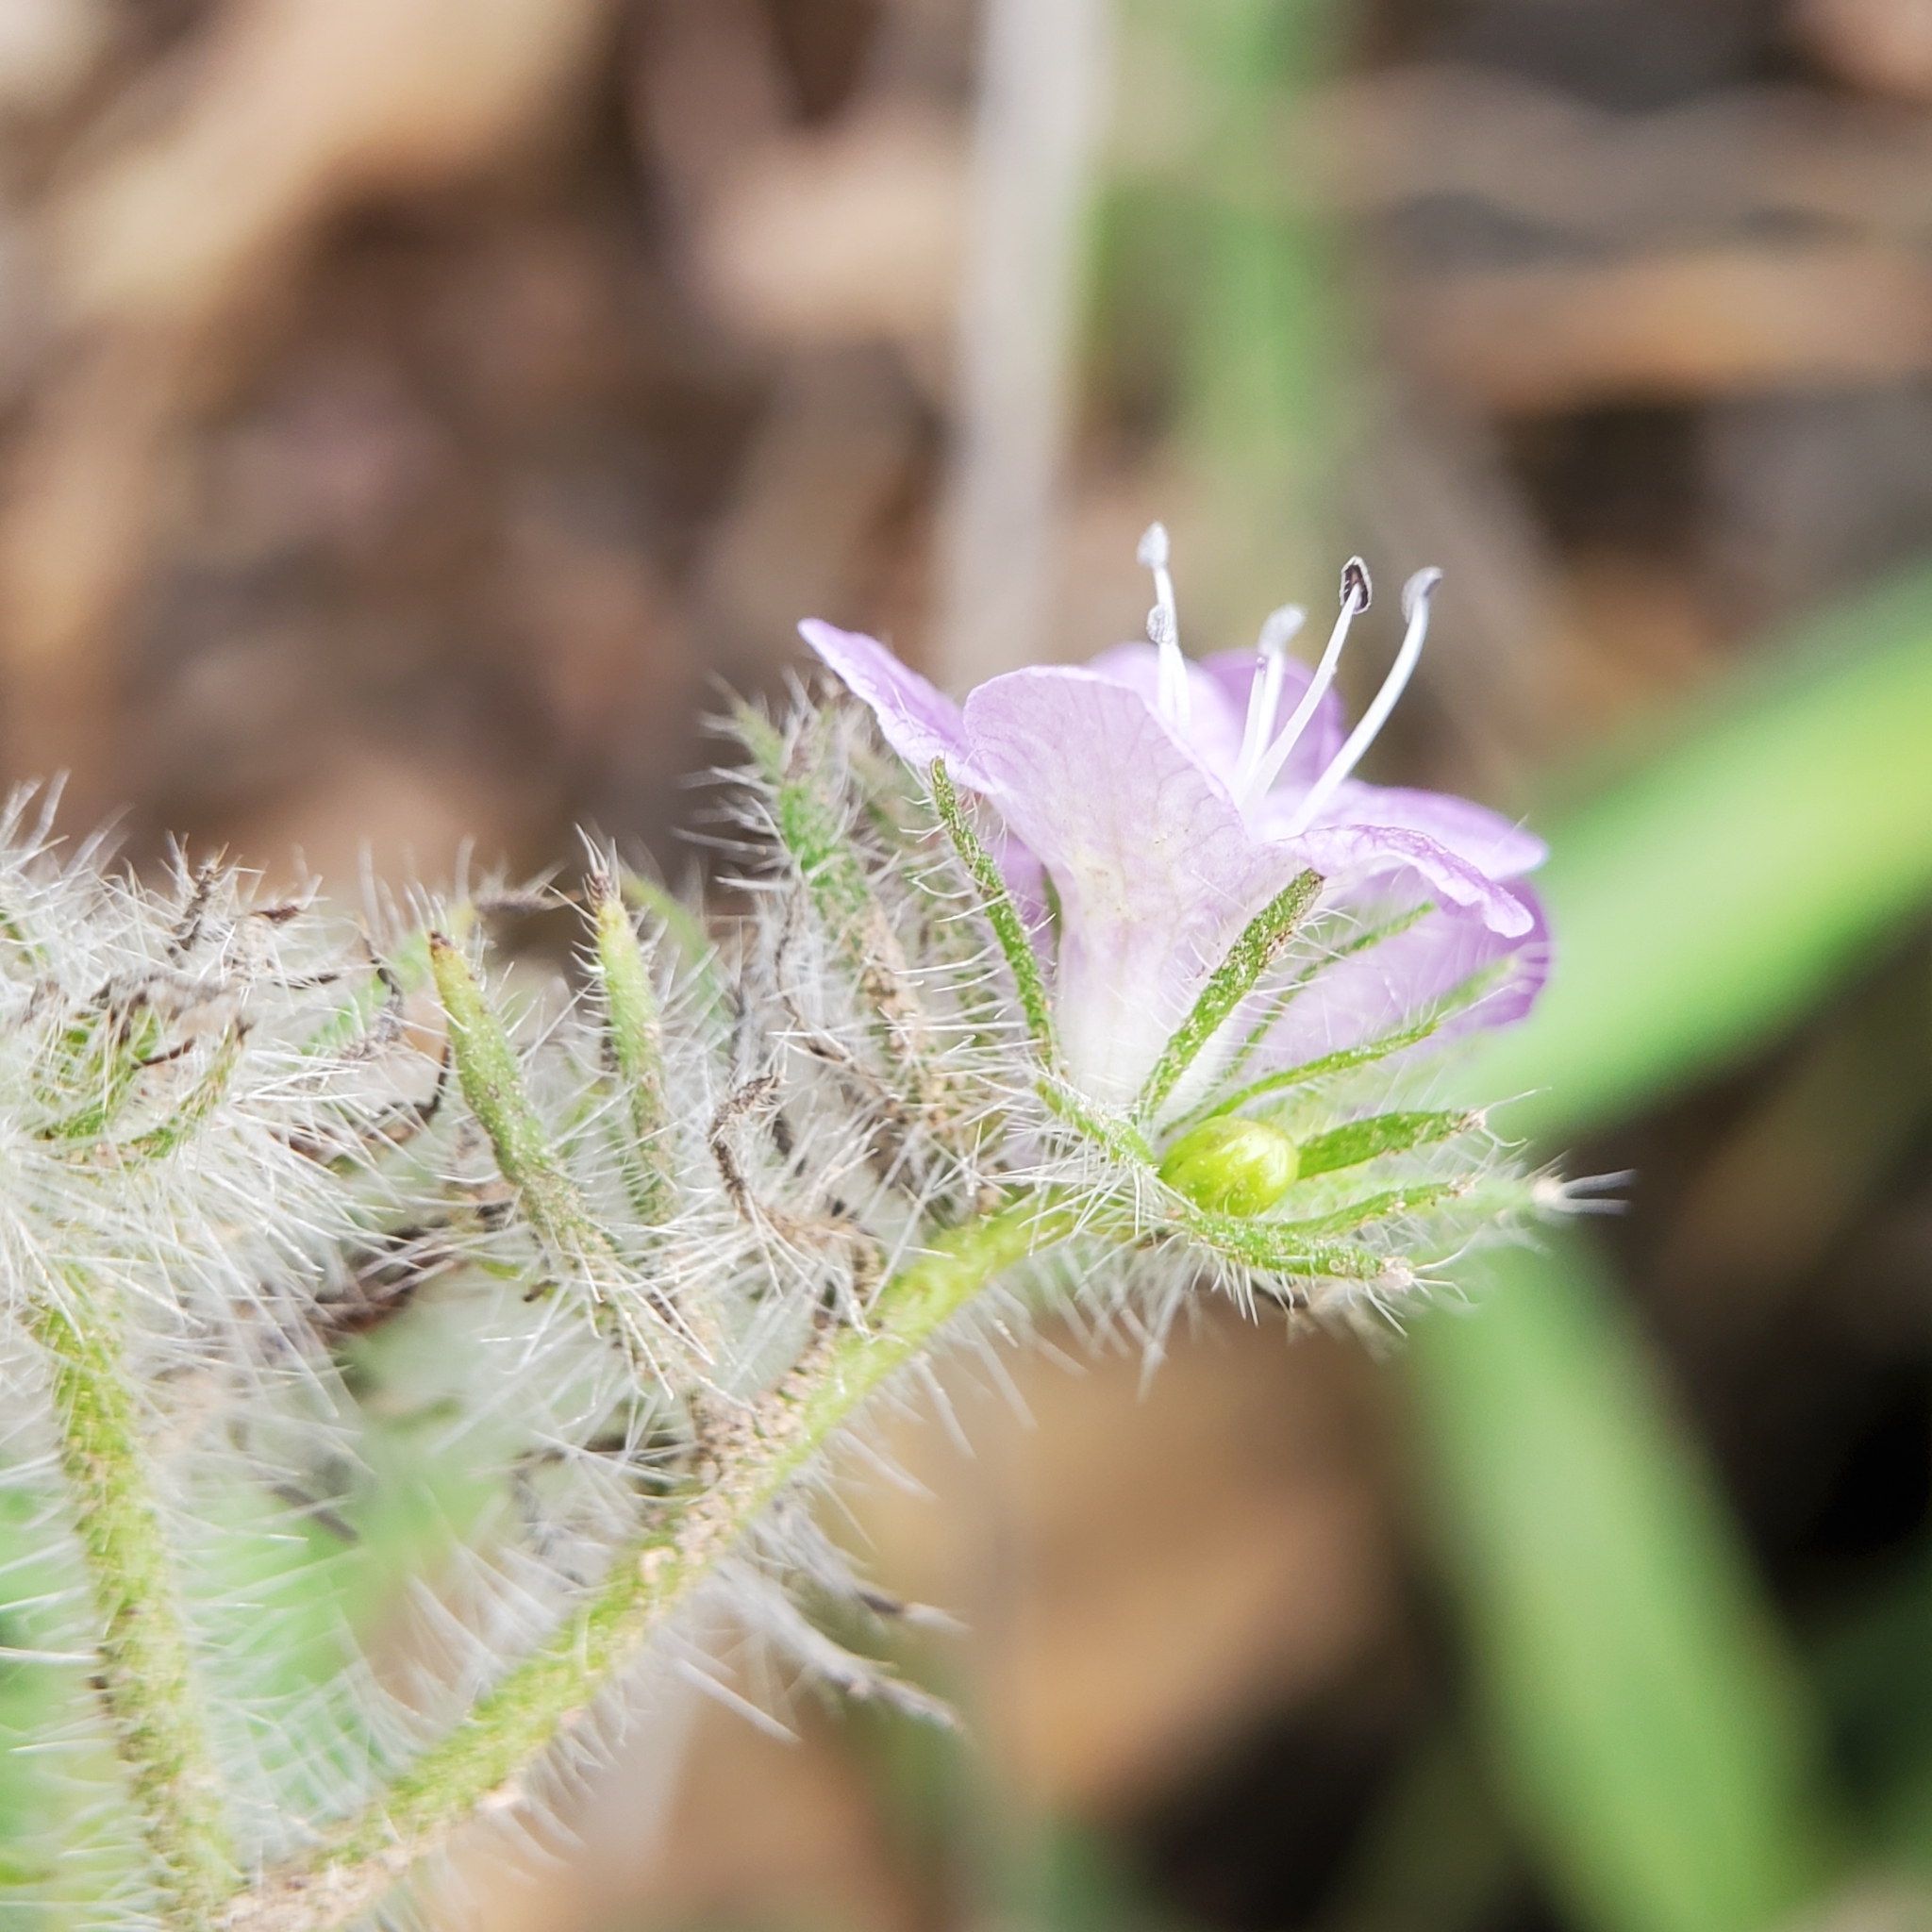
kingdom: Plantae
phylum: Tracheophyta
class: Magnoliopsida
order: Boraginales
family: Hydrophyllaceae
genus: Phacelia
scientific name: Phacelia cicutaria
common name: Caterpillar phacelia
